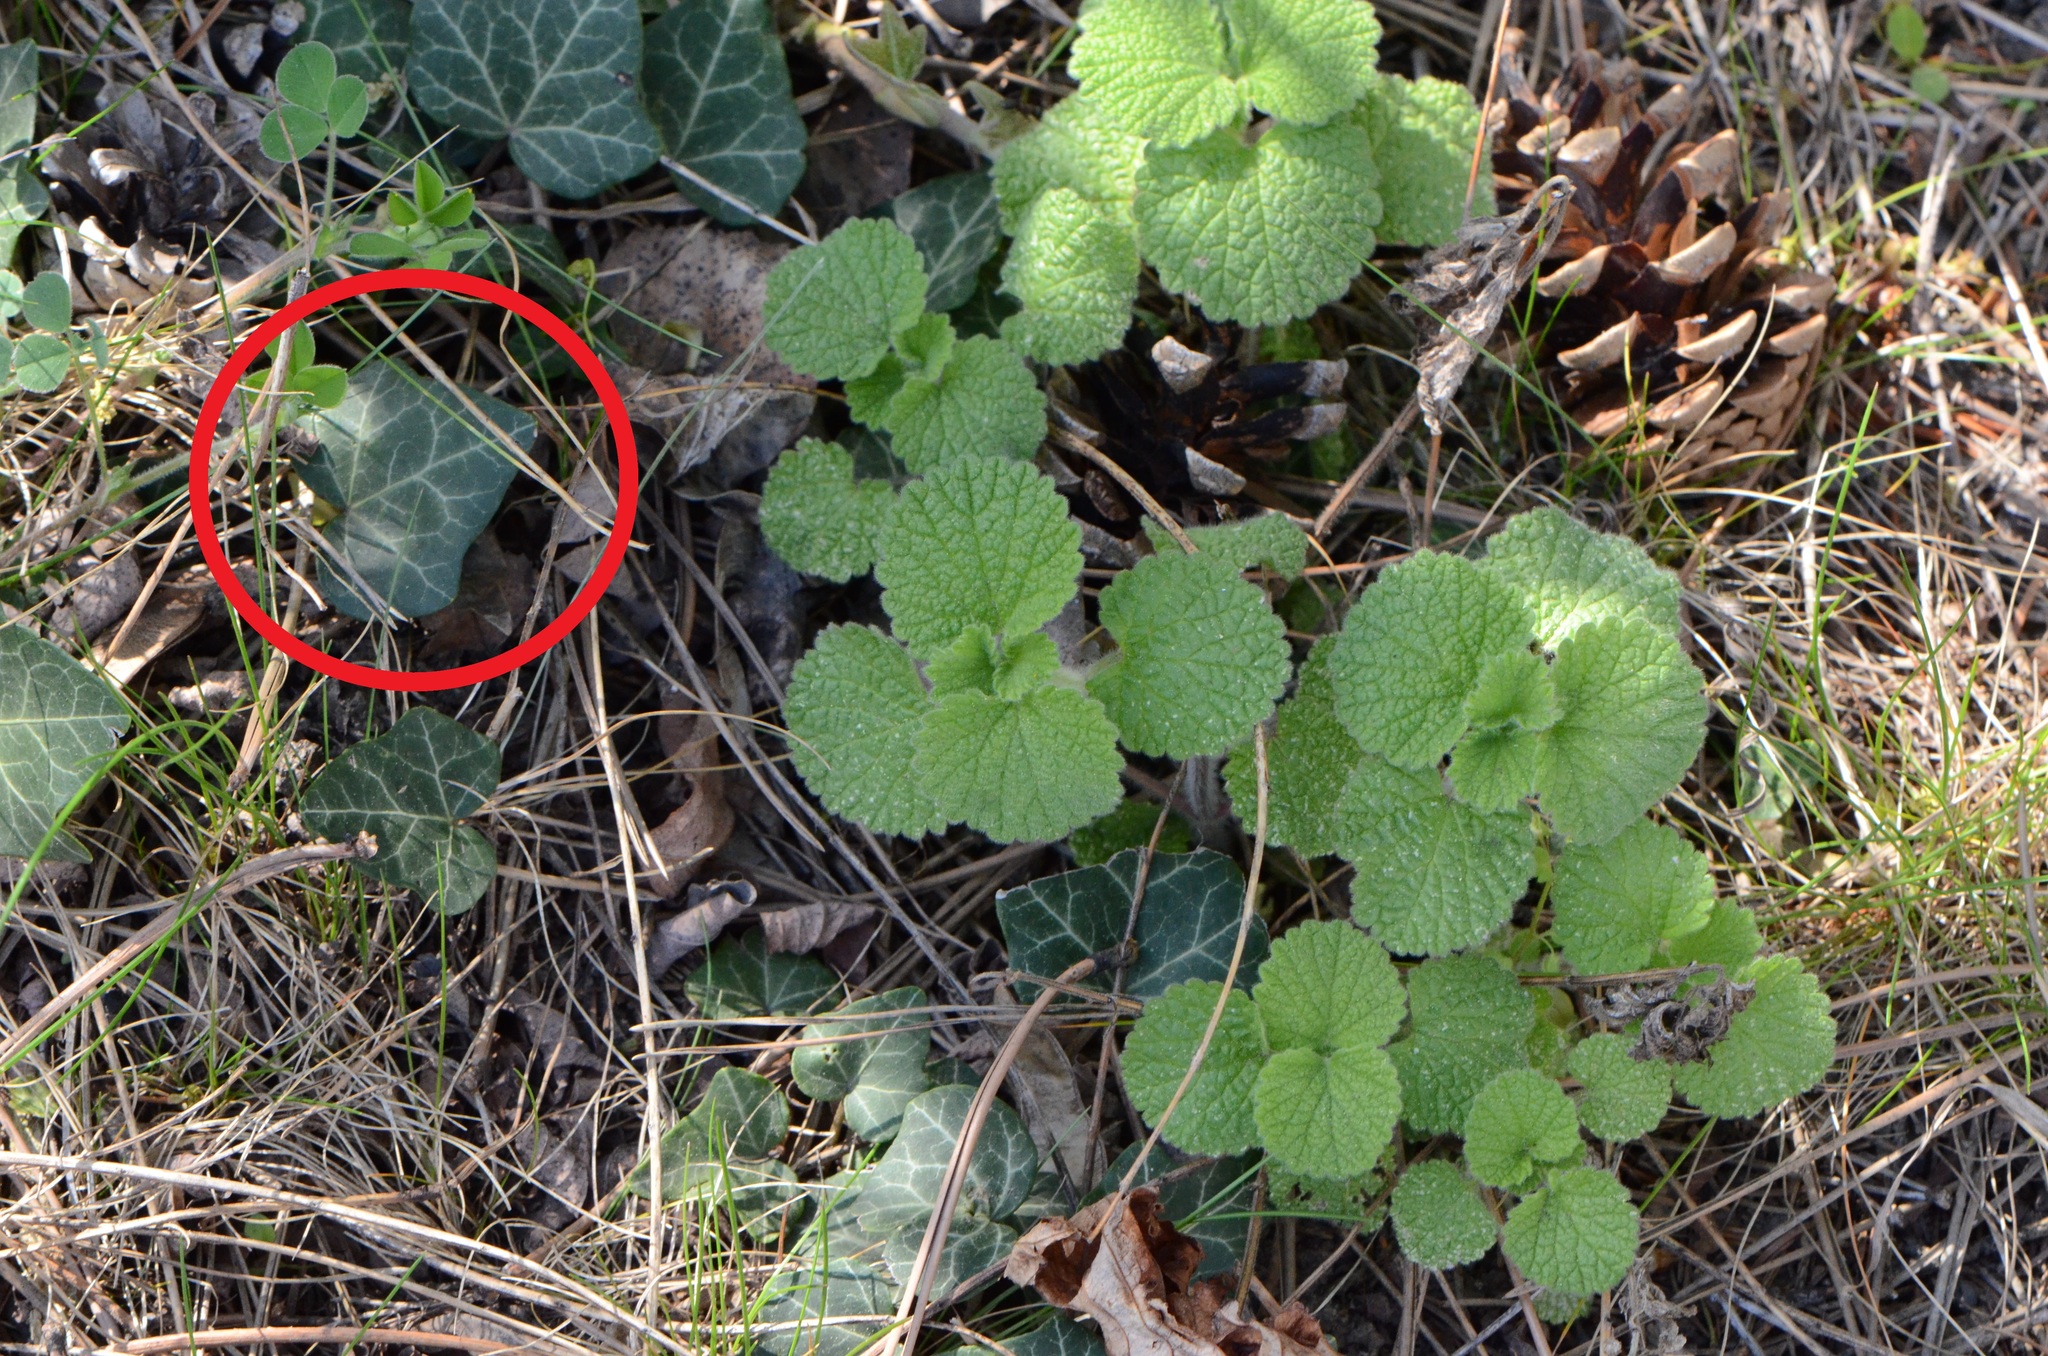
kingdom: Plantae
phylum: Tracheophyta
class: Magnoliopsida
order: Apiales
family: Araliaceae
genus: Hedera
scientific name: Hedera helix
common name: Ivy
